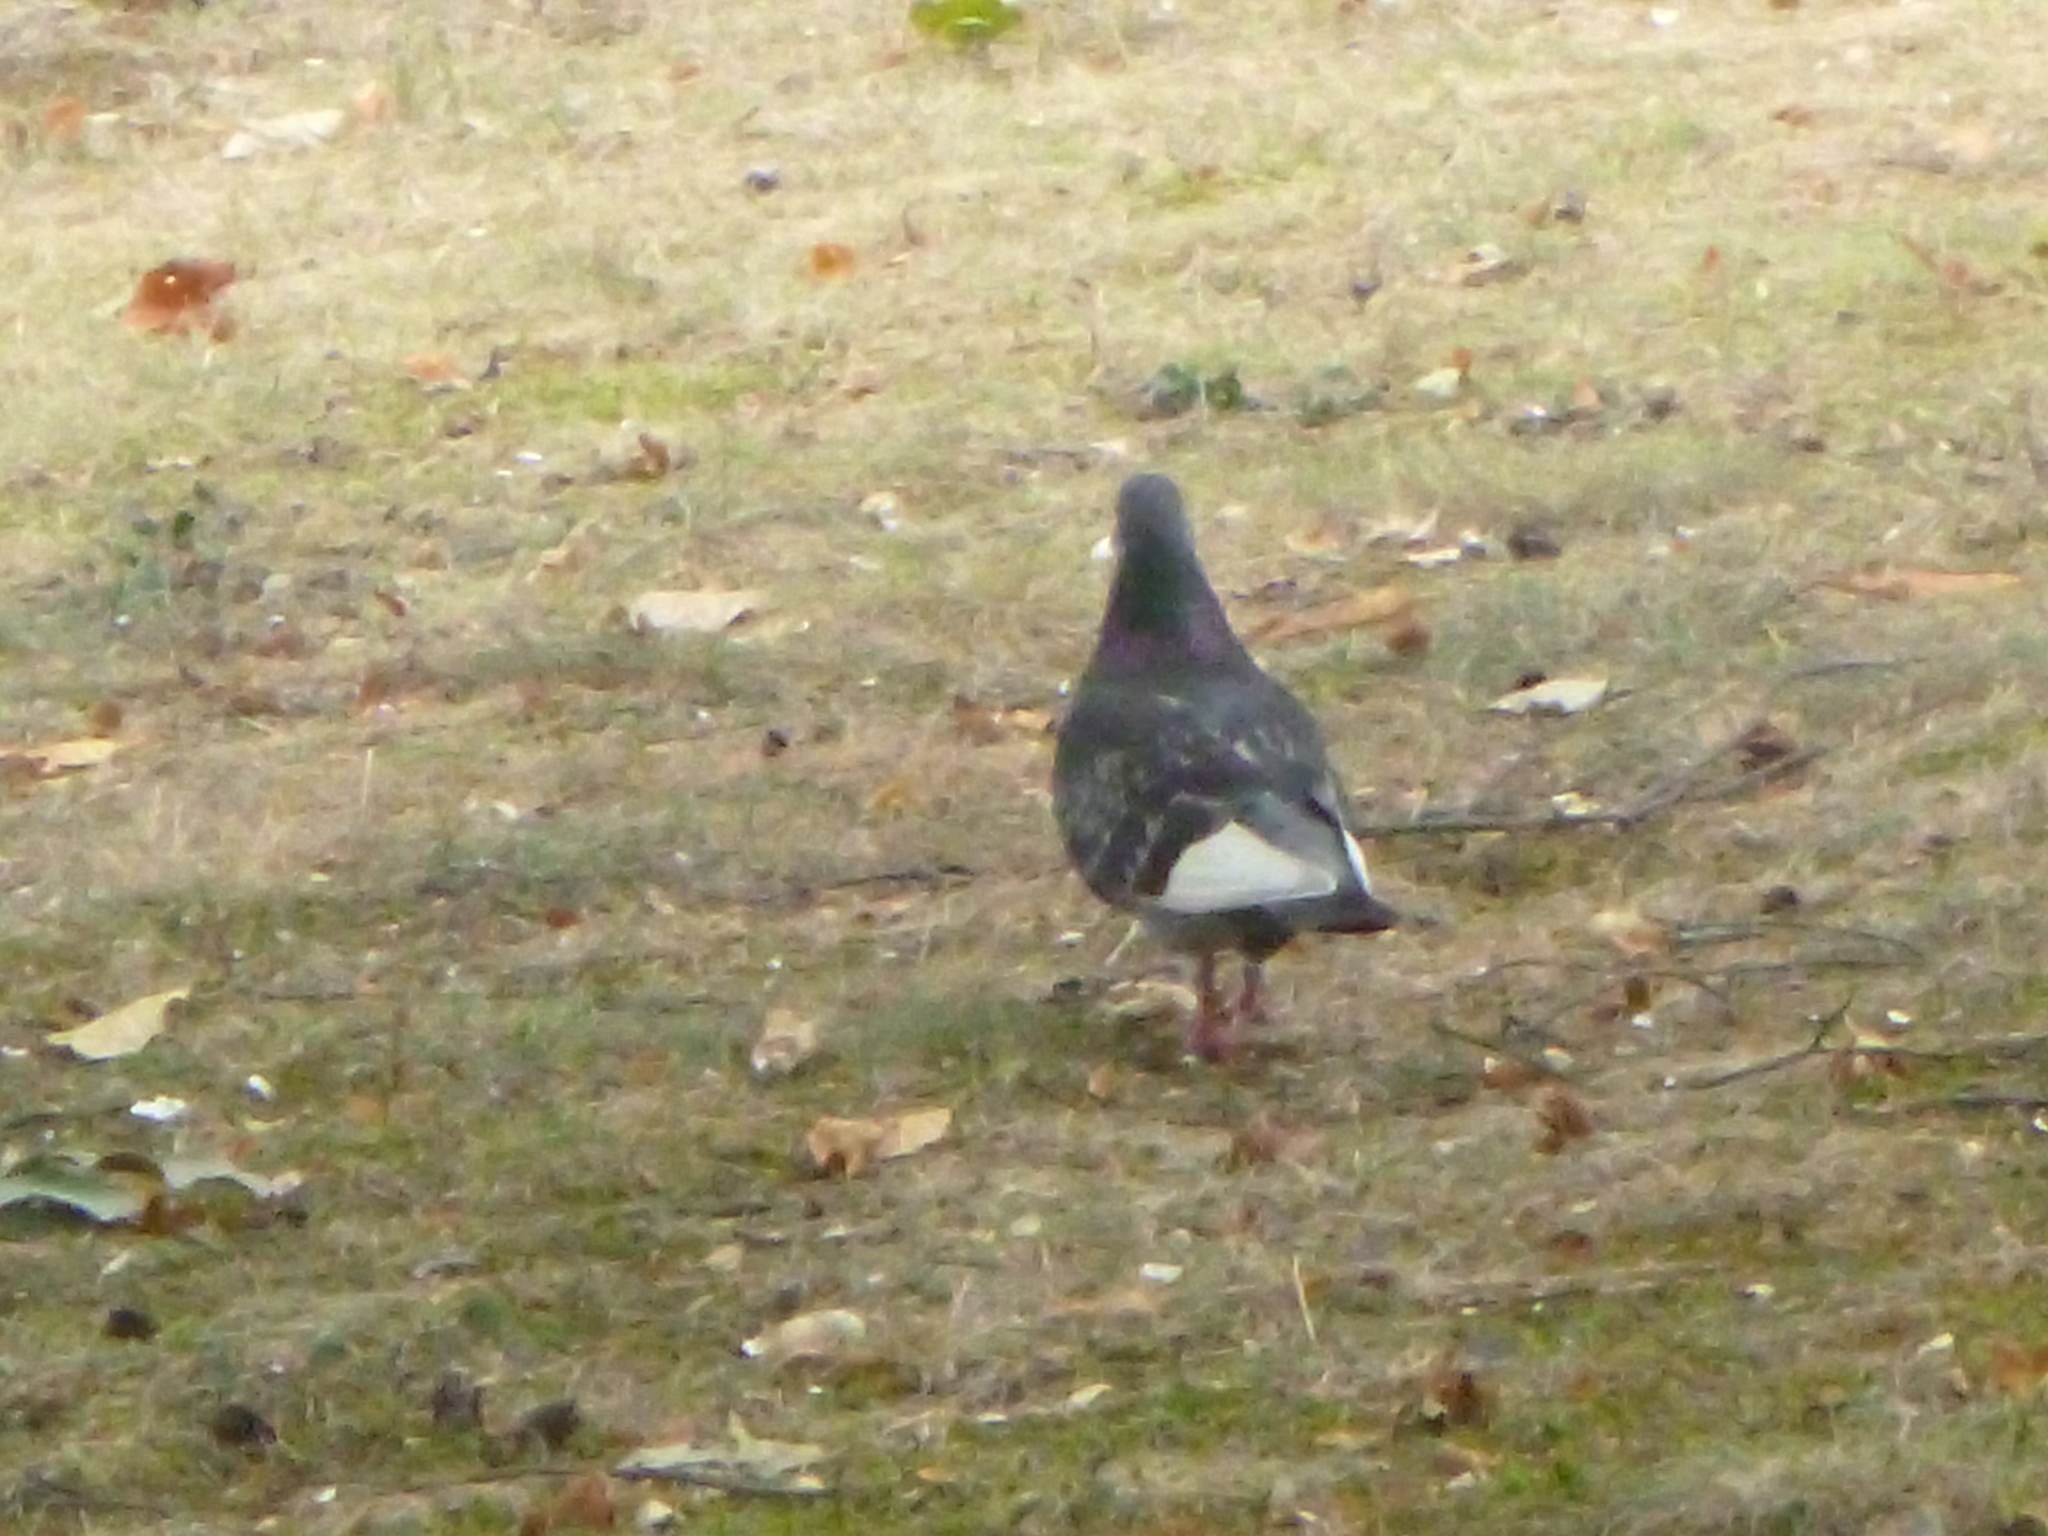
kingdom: Animalia
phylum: Chordata
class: Aves
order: Columbiformes
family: Columbidae
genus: Columba
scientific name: Columba livia
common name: Rock pigeon
